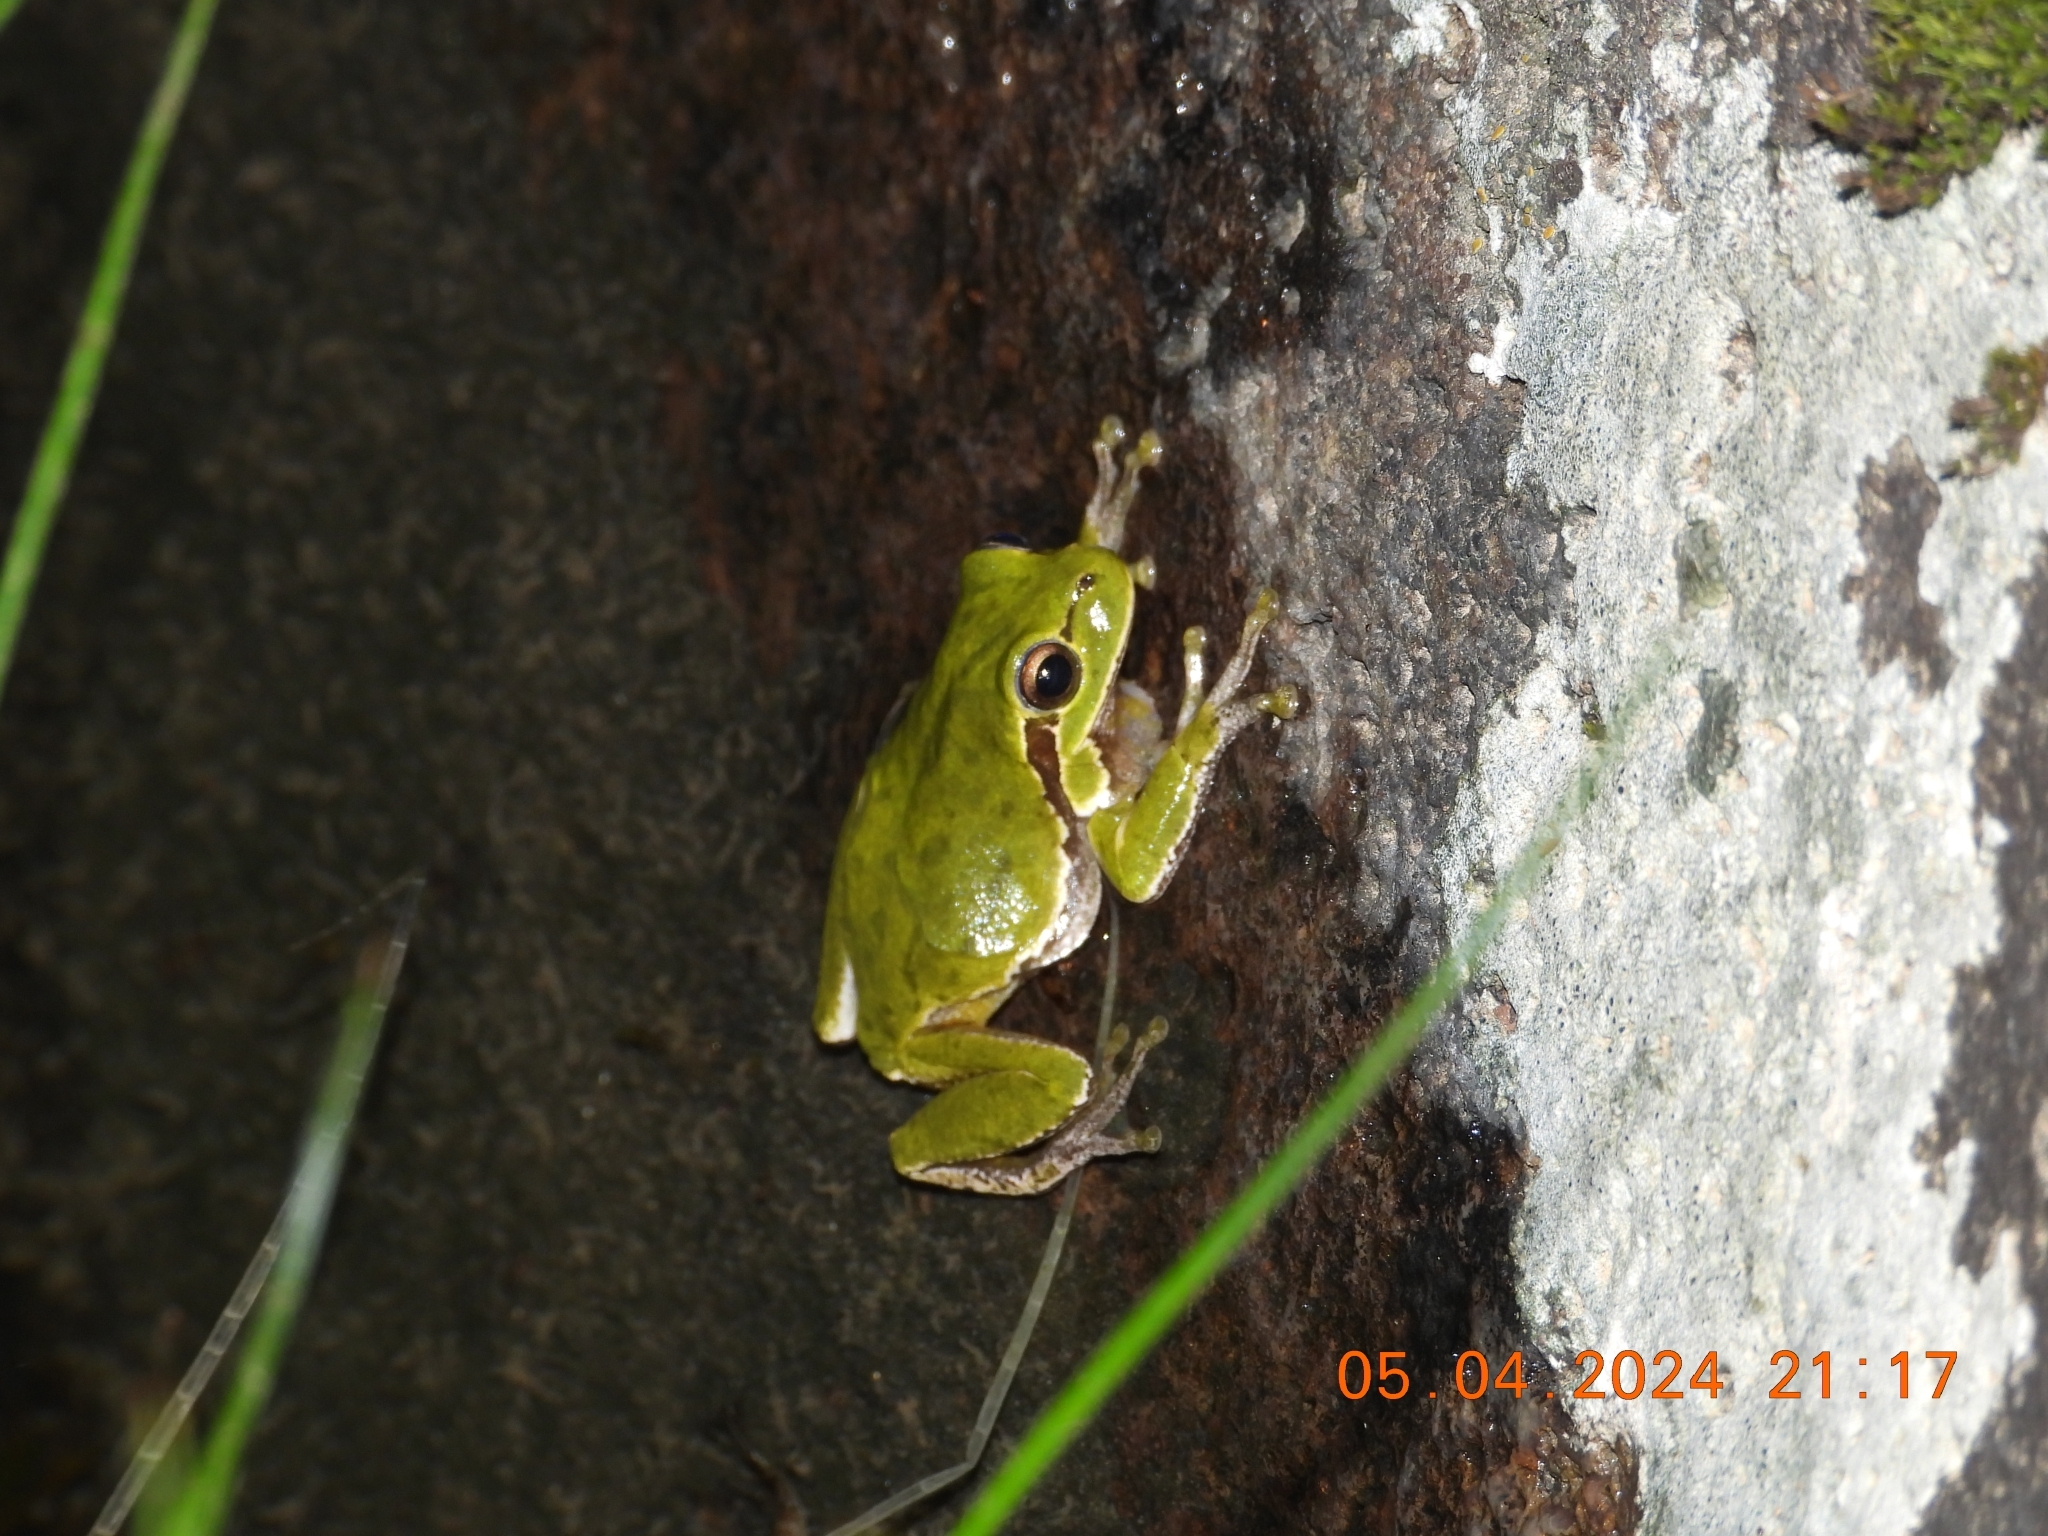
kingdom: Animalia
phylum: Chordata
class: Amphibia
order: Anura
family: Hylidae
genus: Hyla
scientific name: Hyla sarda
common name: Sardinian tree frog
